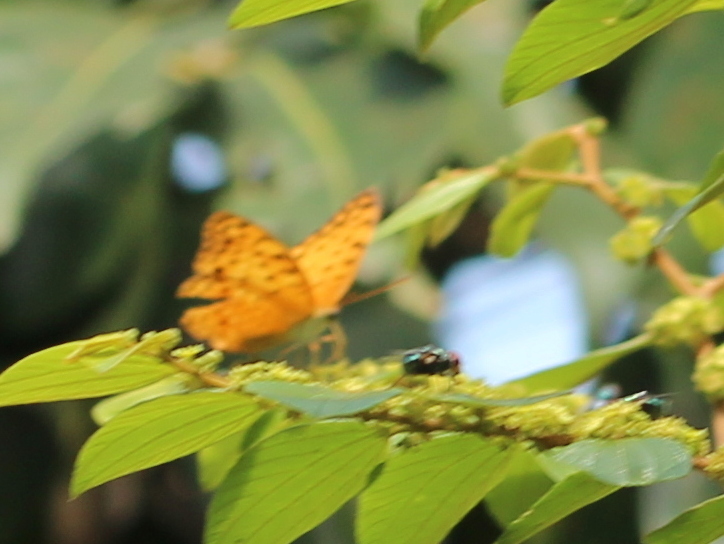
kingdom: Animalia
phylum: Arthropoda
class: Insecta
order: Lepidoptera
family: Nymphalidae
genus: Phalanta
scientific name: Phalanta phalantha
